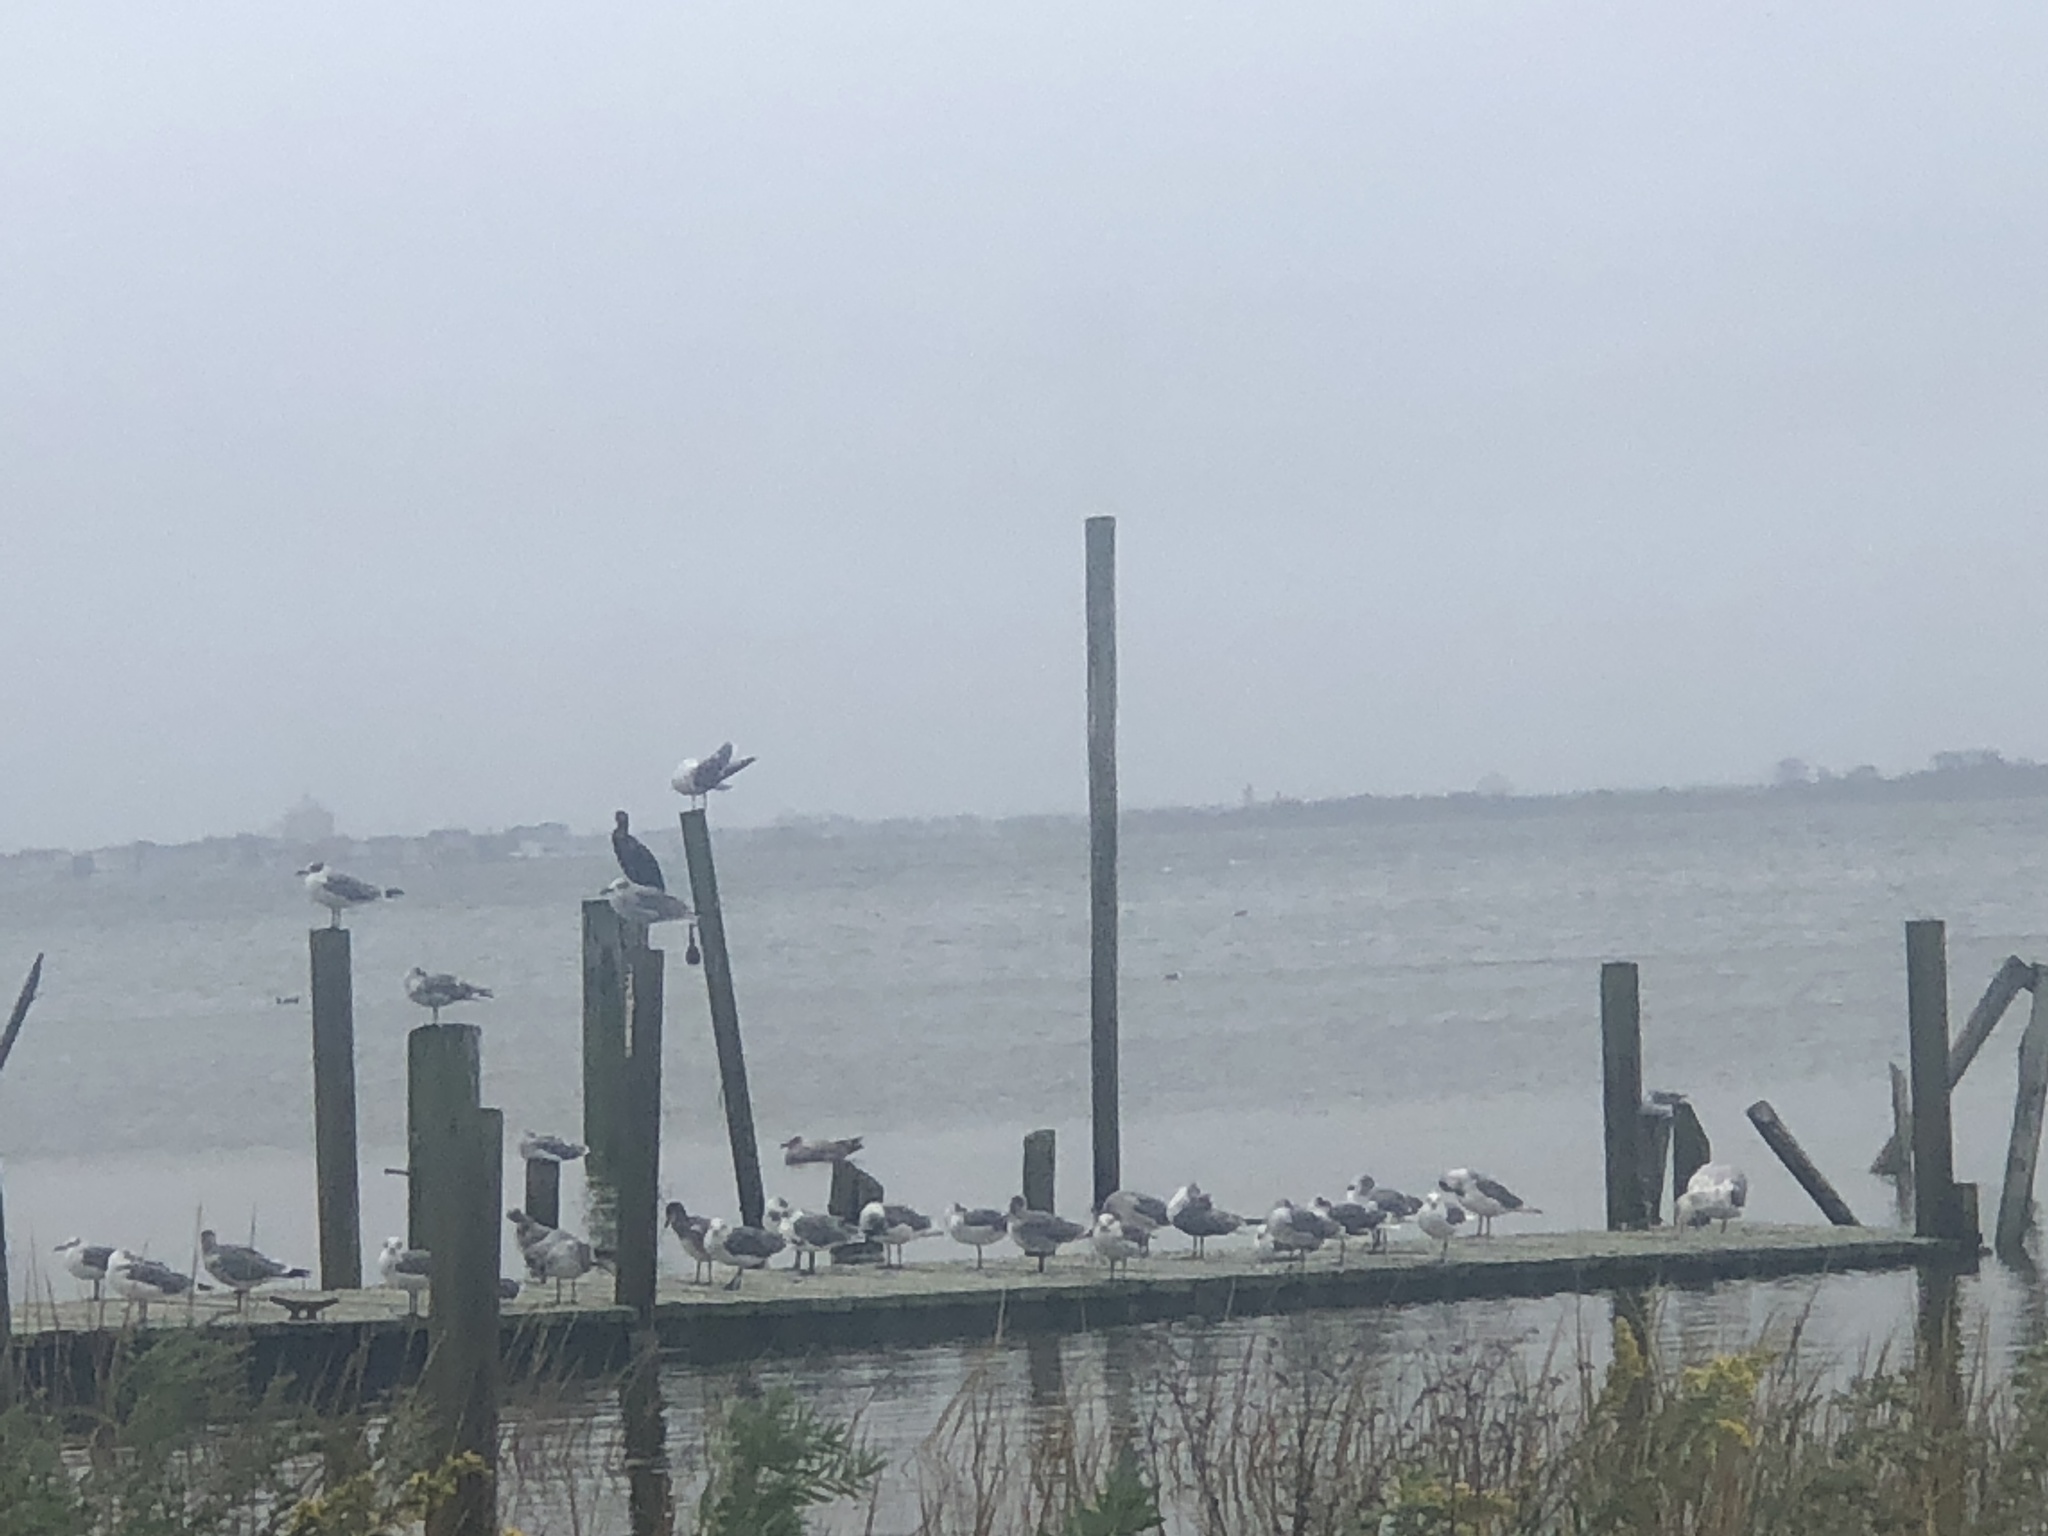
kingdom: Animalia
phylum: Chordata
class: Aves
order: Charadriiformes
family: Laridae
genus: Leucophaeus
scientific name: Leucophaeus atricilla
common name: Laughing gull
